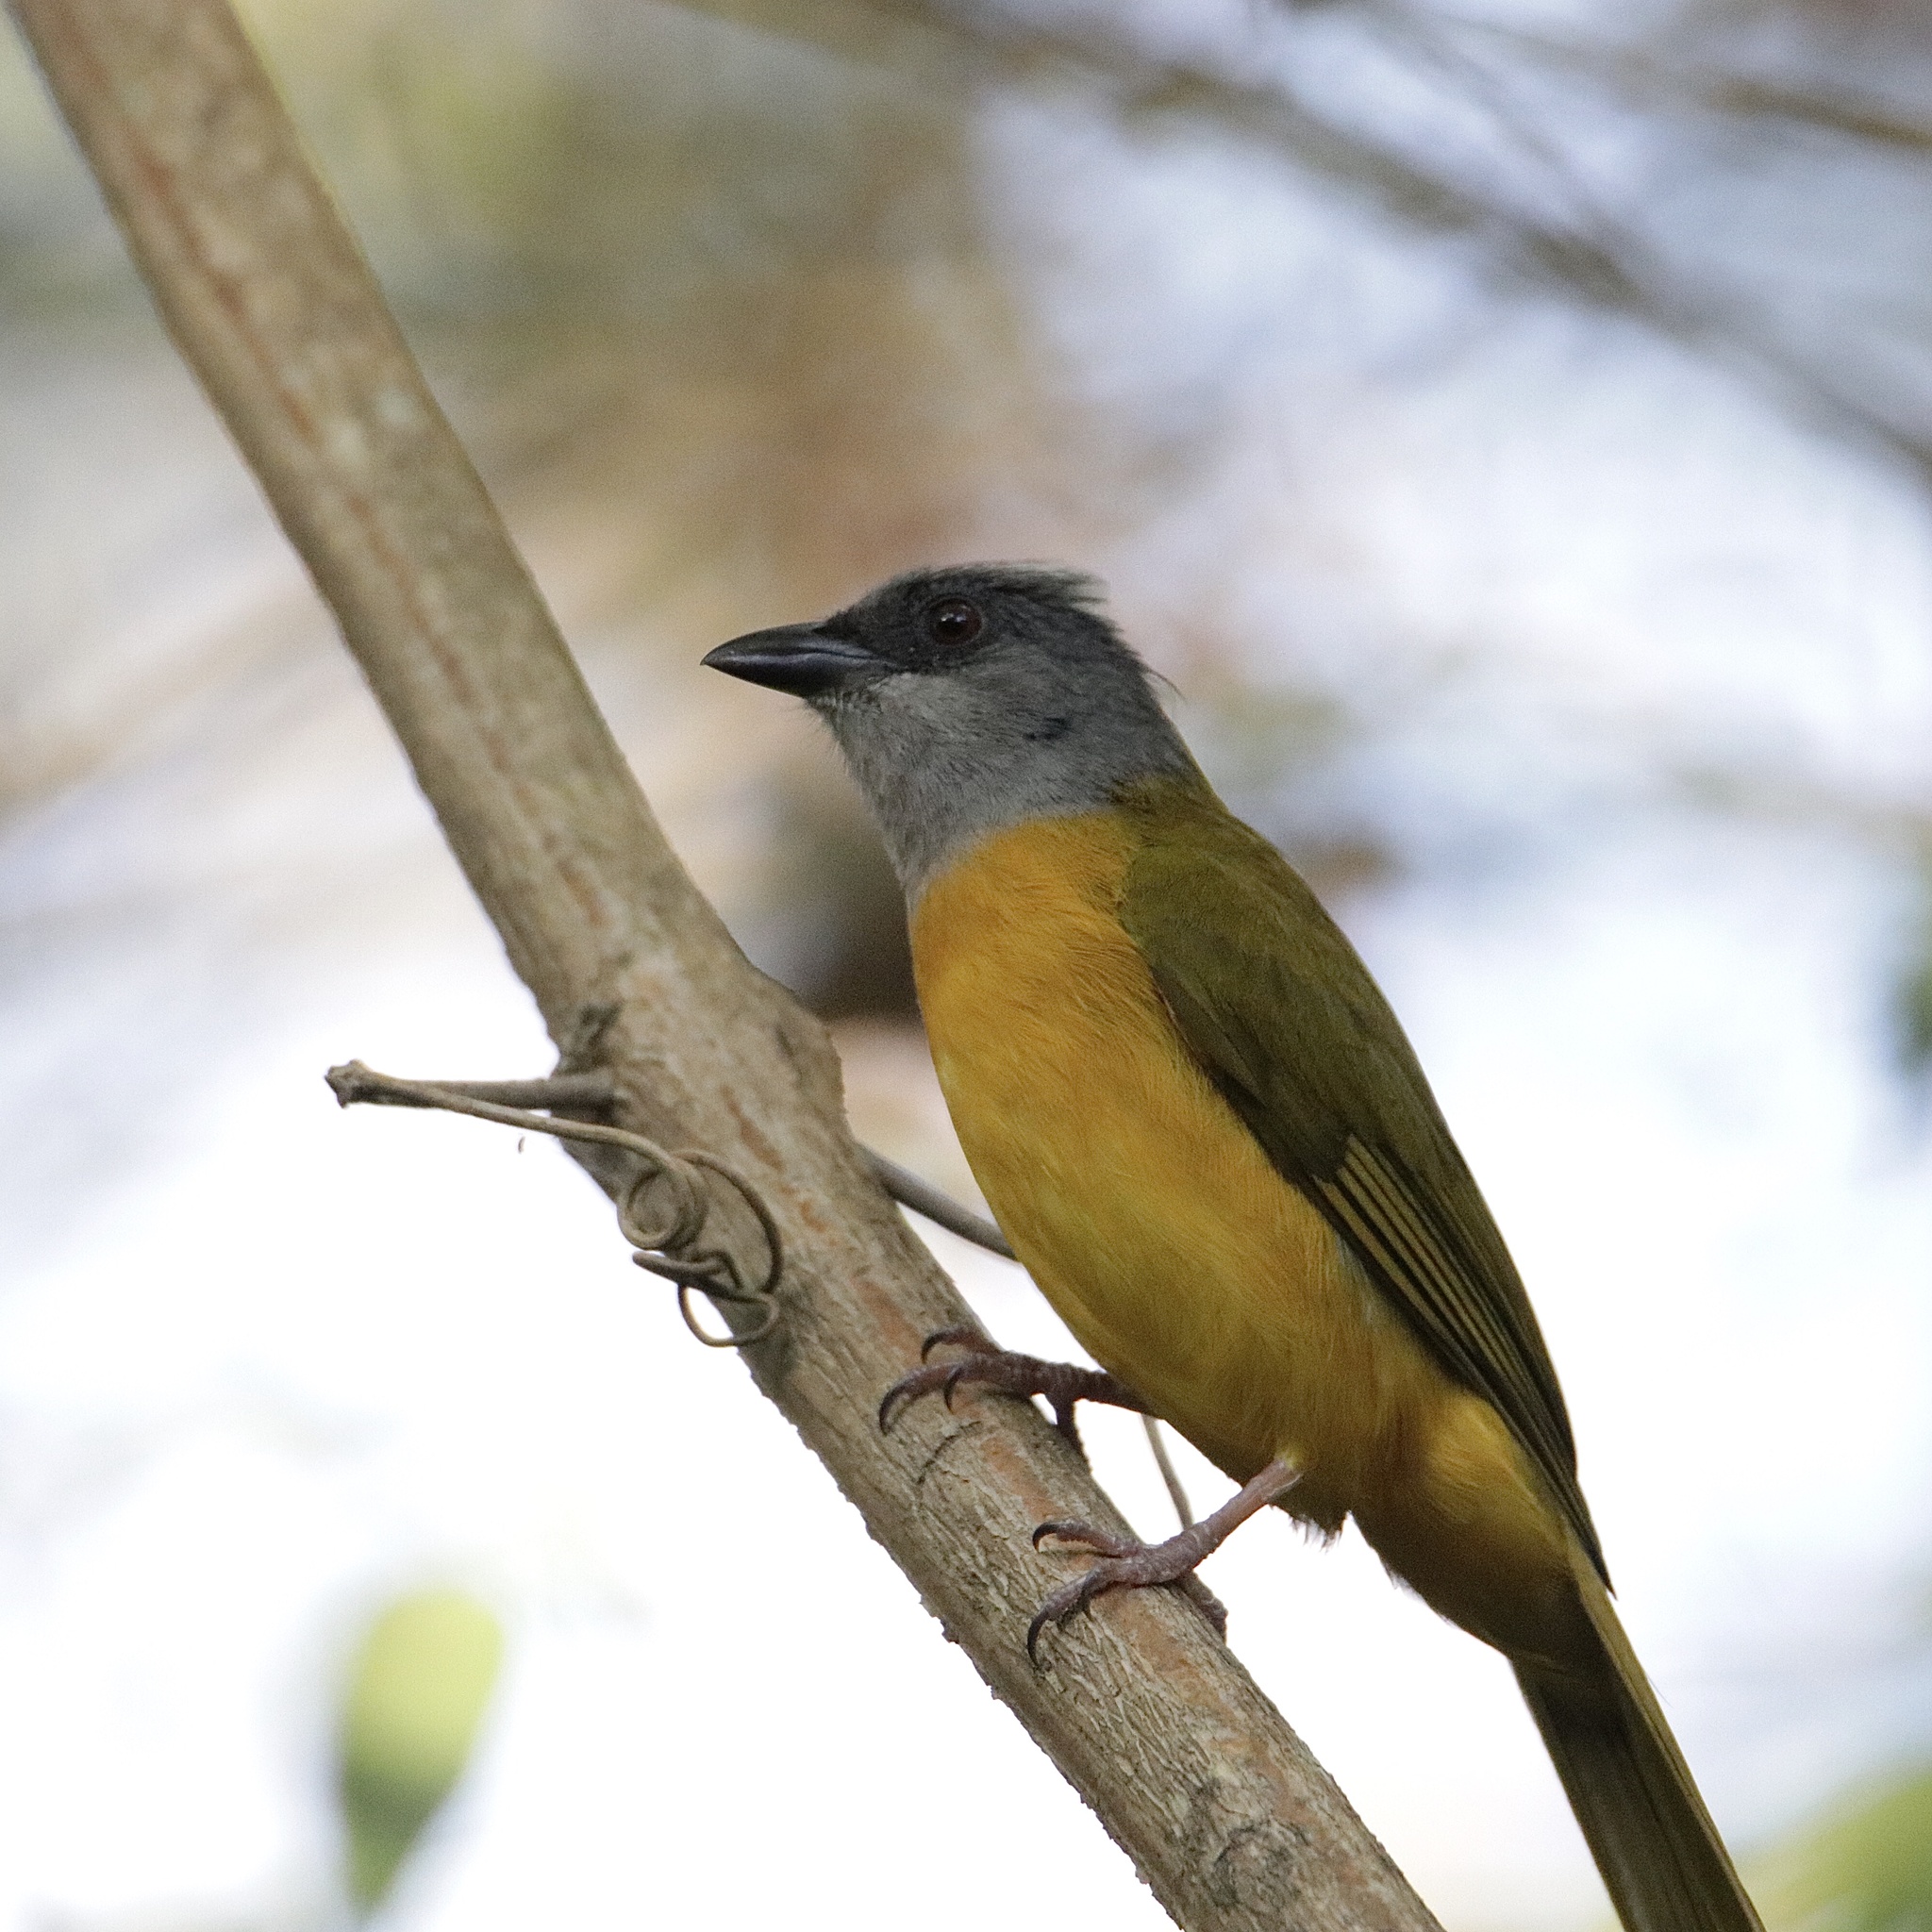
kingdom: Animalia
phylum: Chordata
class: Aves
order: Passeriformes
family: Thraupidae
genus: Eucometis
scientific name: Eucometis penicillata
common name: Grey-headed tanager
